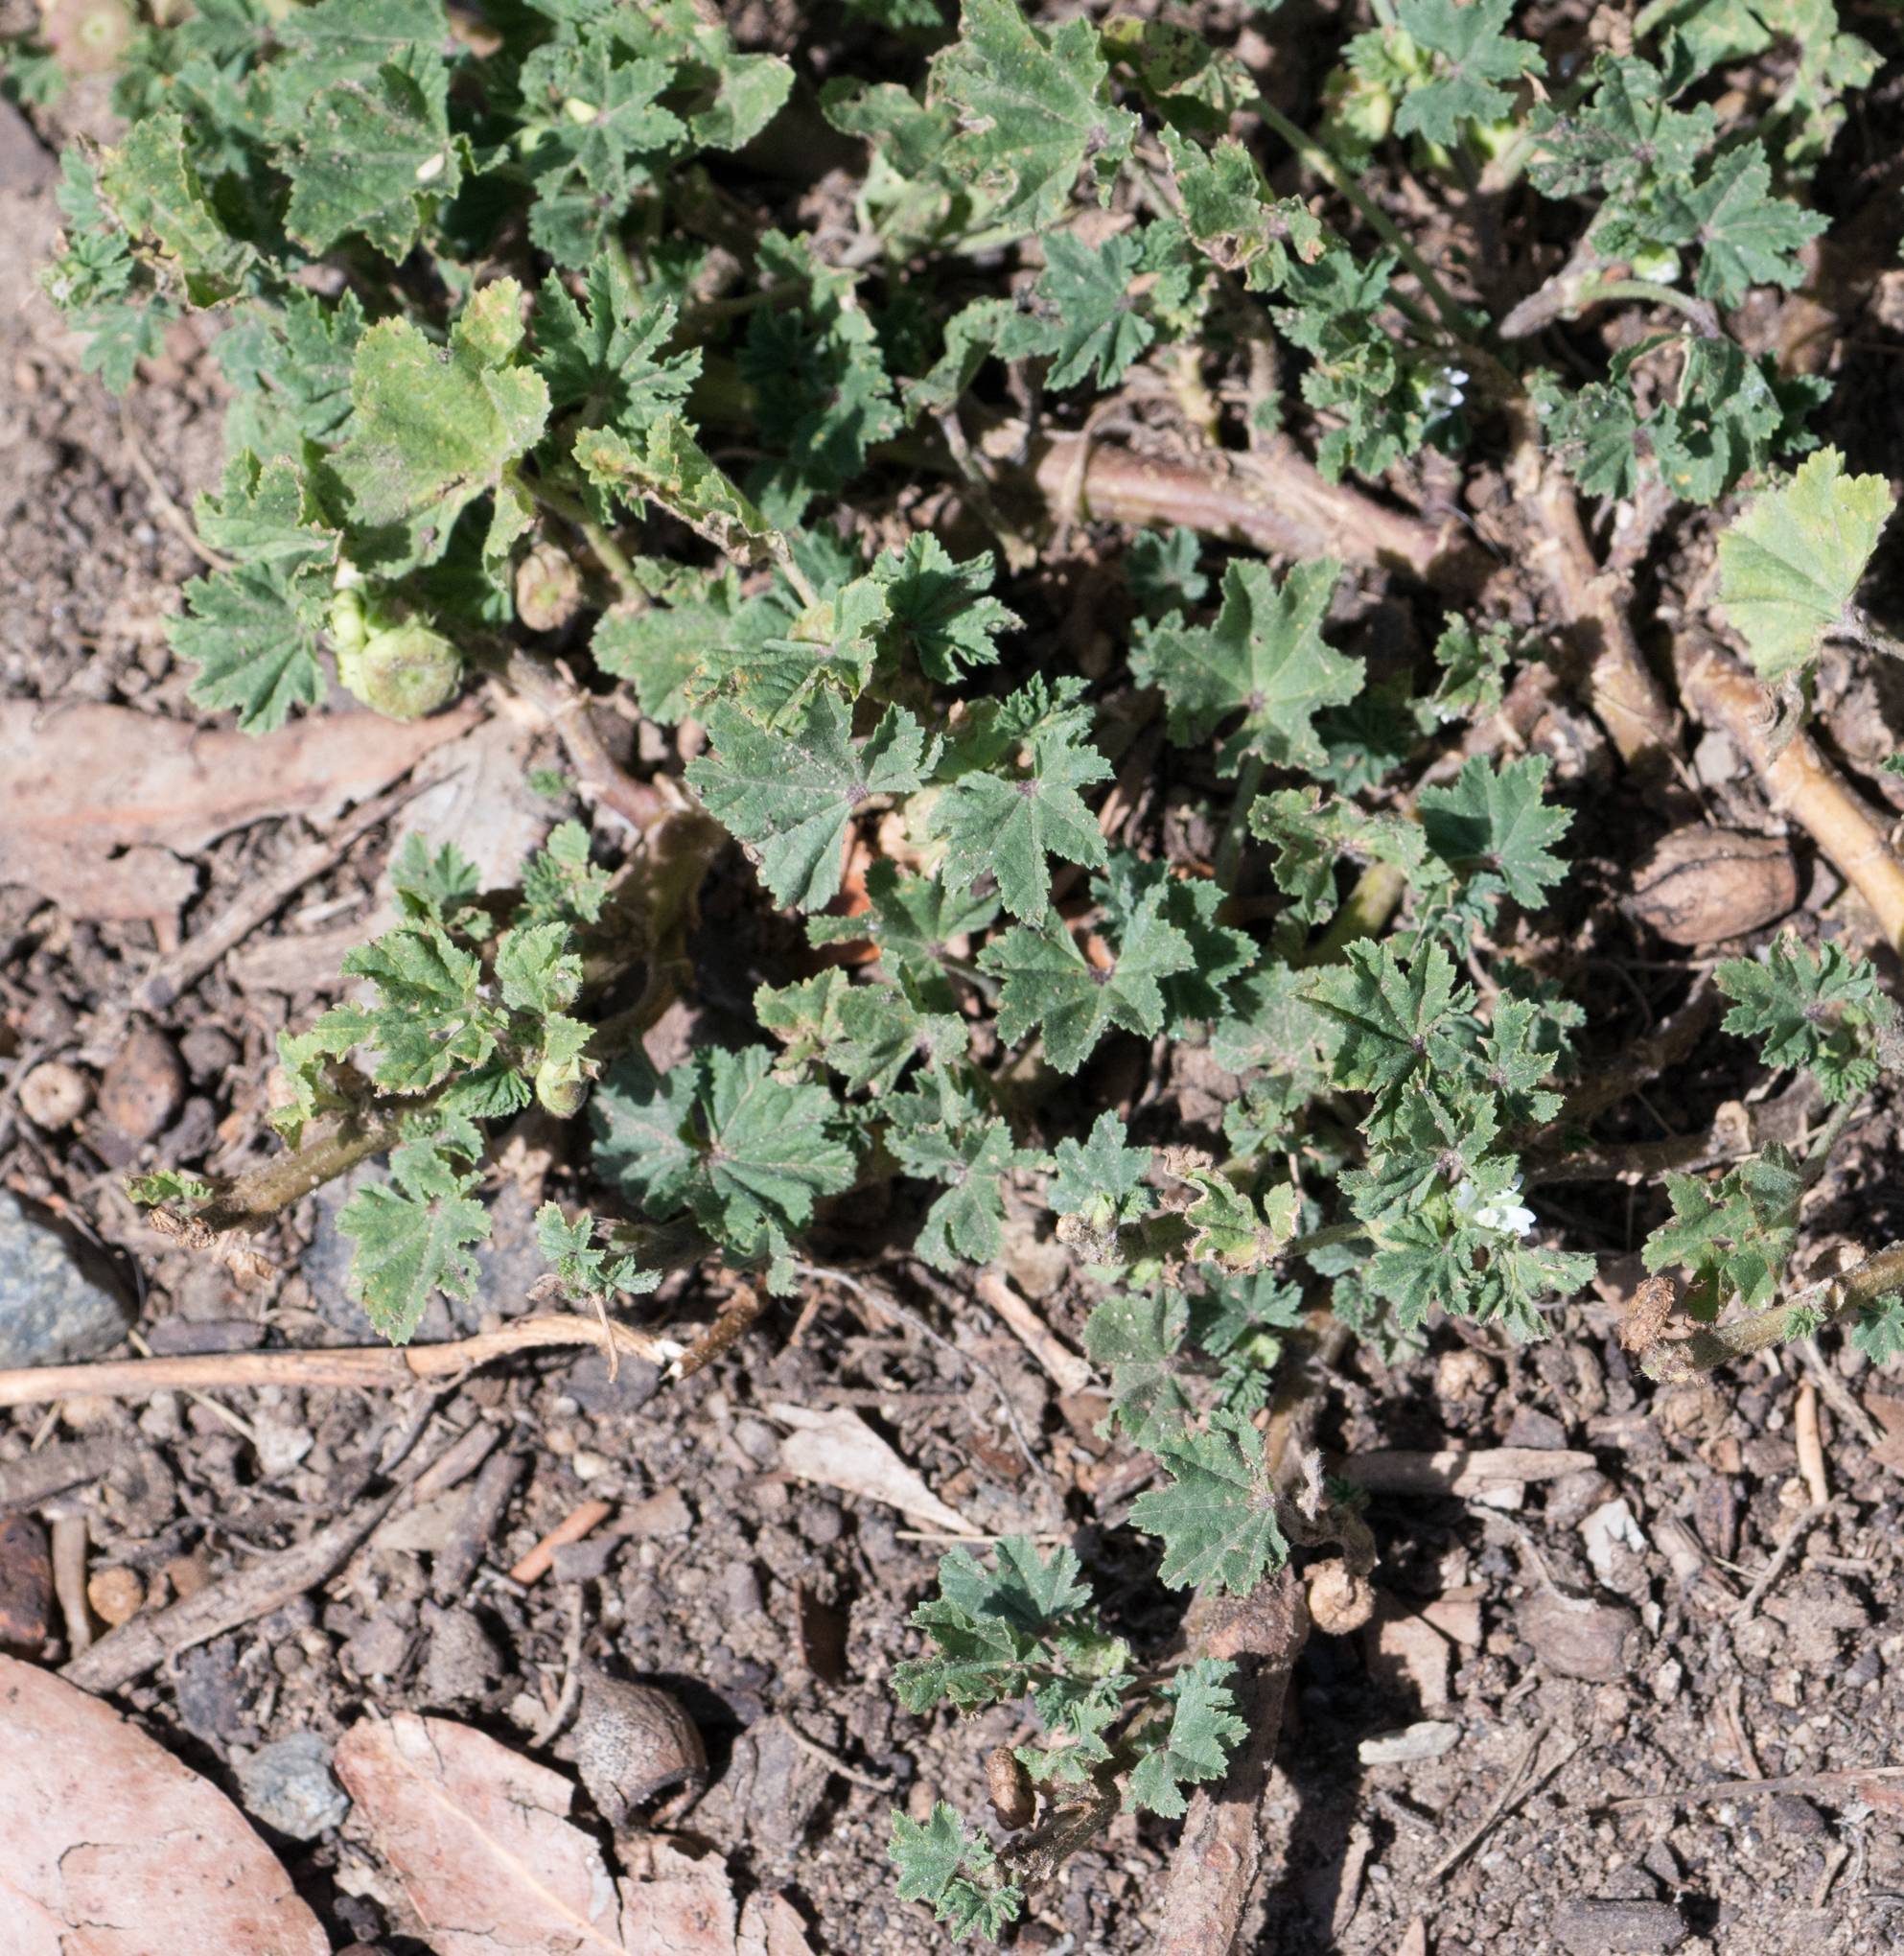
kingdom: Plantae
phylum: Tracheophyta
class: Magnoliopsida
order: Malvales
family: Malvaceae
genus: Malva
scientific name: Malva parviflora
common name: Least mallow
